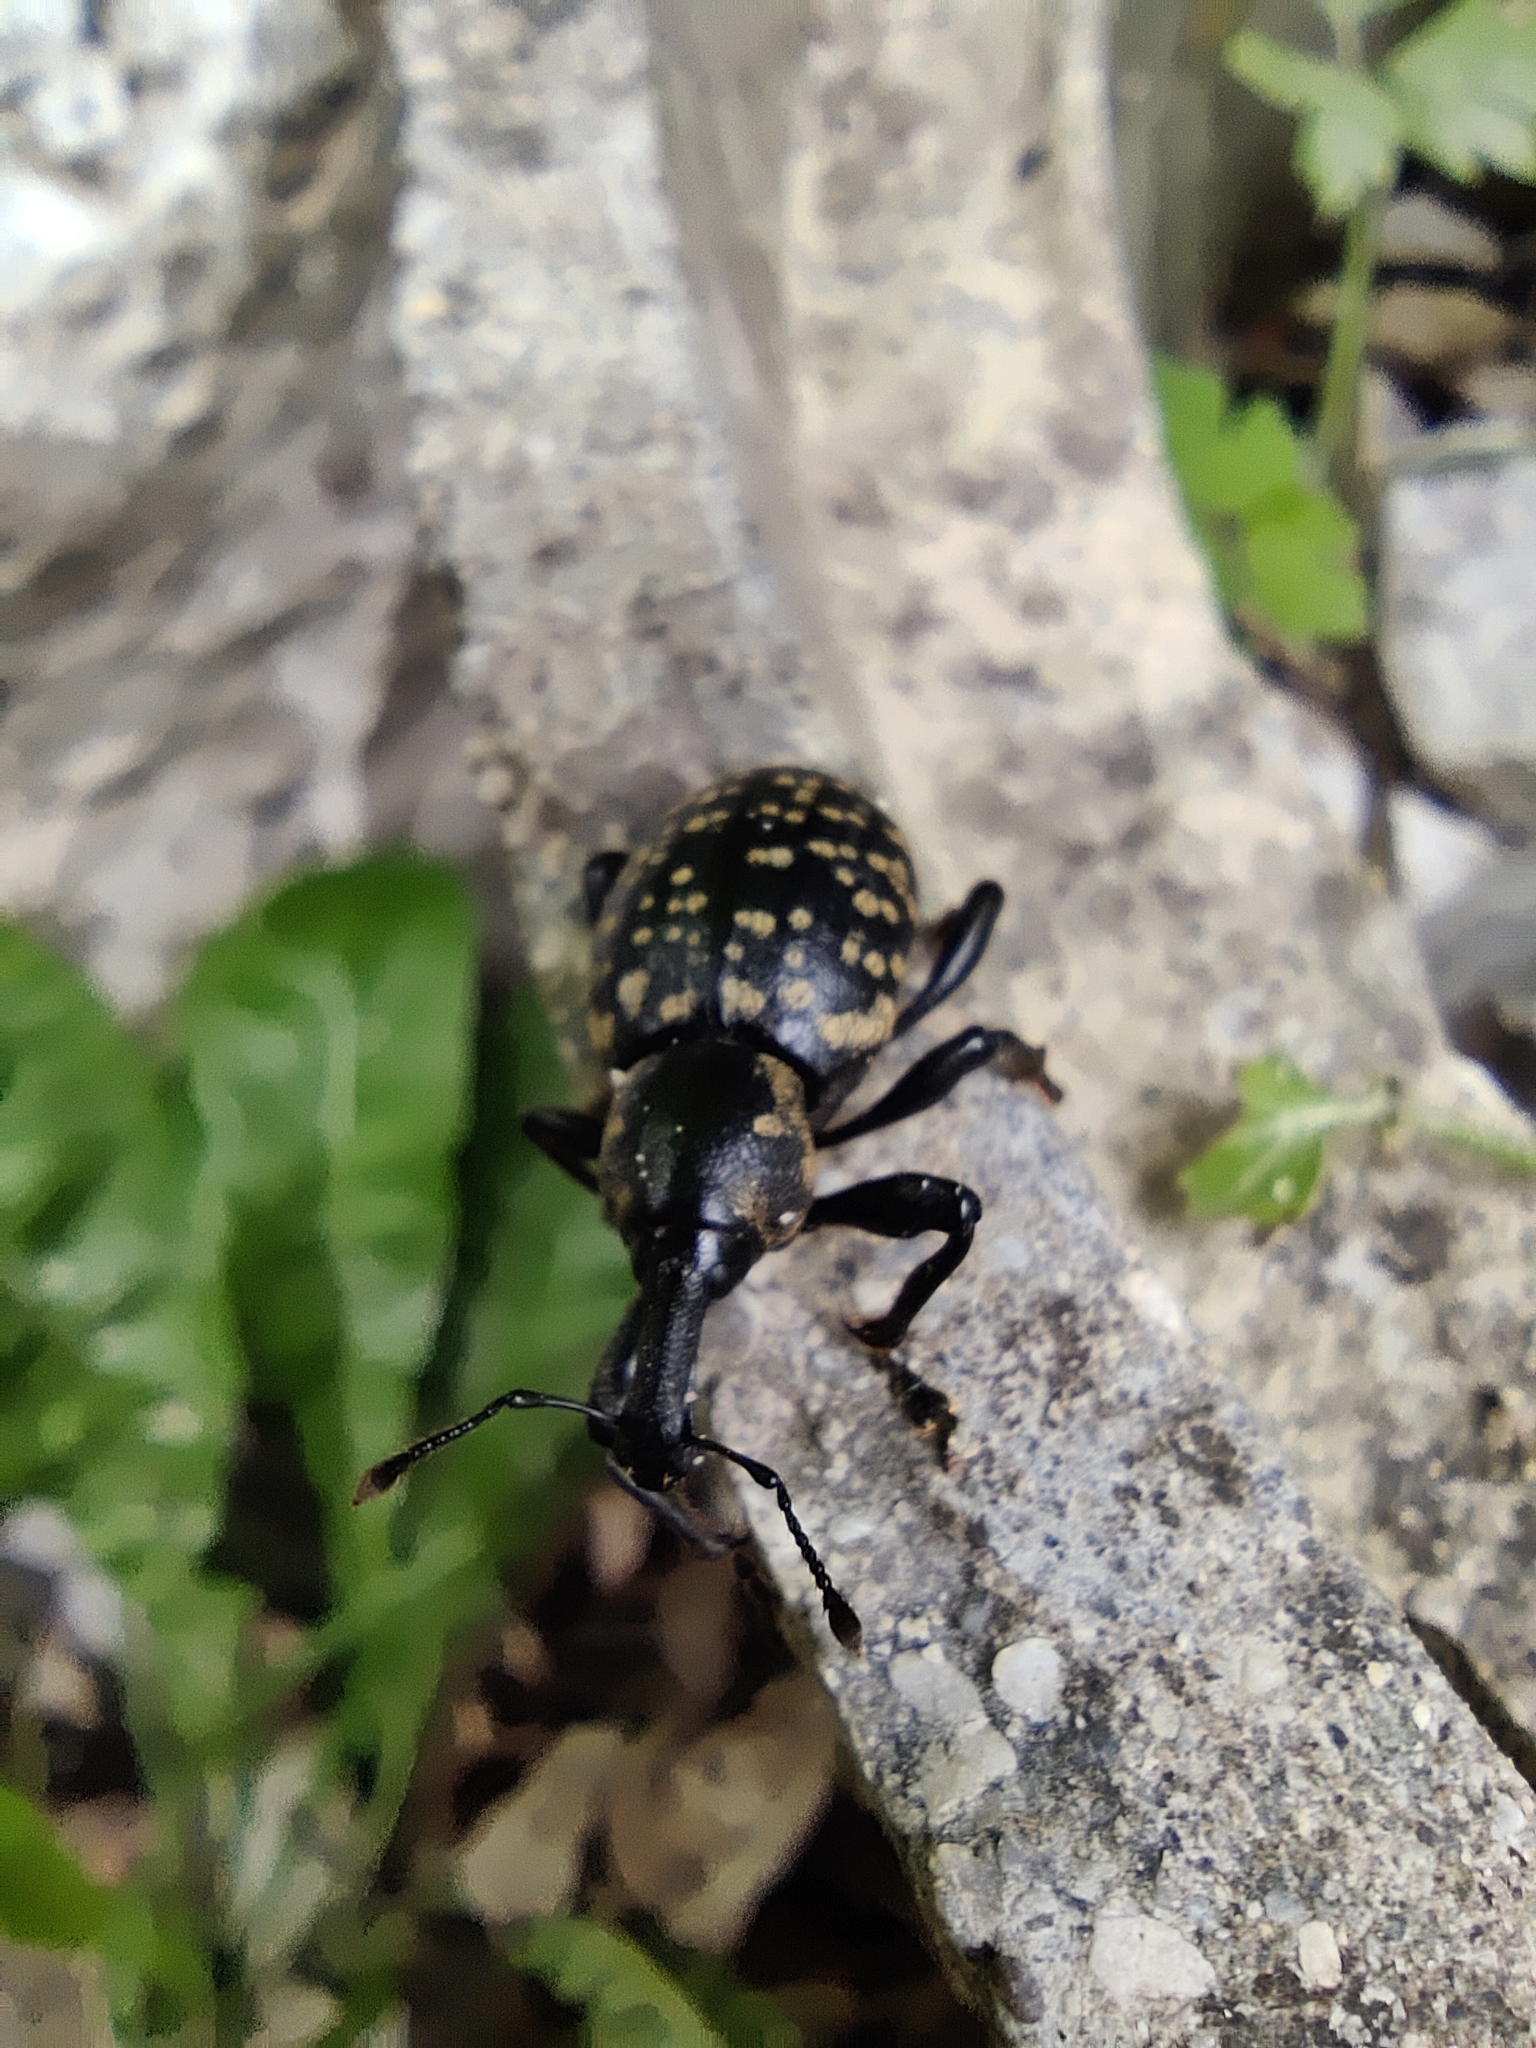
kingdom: Animalia
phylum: Arthropoda
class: Insecta
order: Coleoptera
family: Curculionidae
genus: Liparus
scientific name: Liparus glabrirostris
